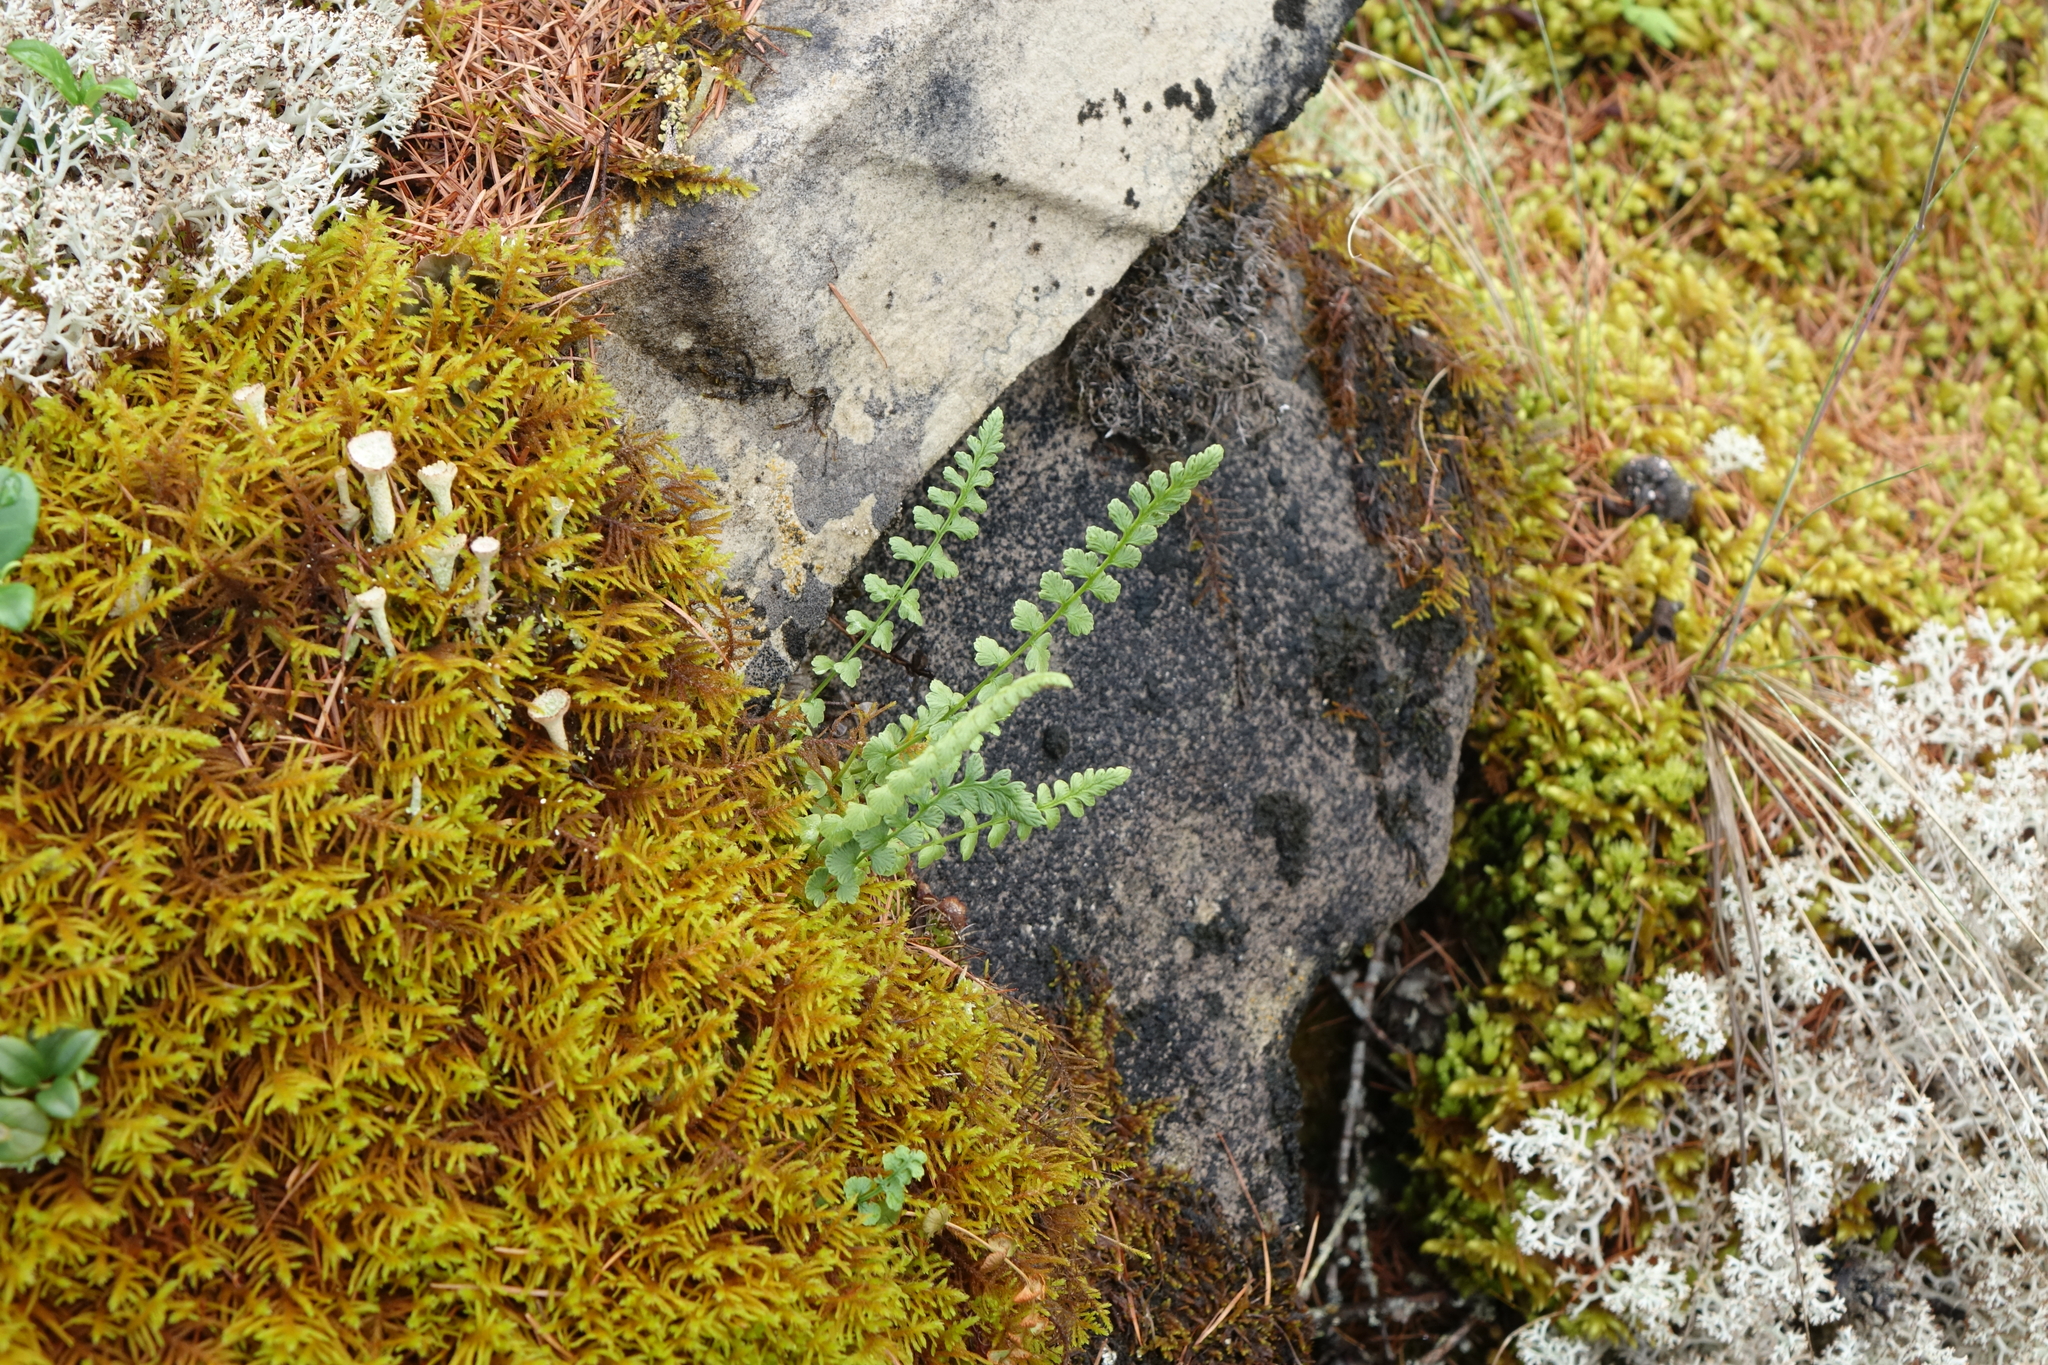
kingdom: Plantae
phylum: Tracheophyta
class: Polypodiopsida
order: Polypodiales
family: Woodsiaceae
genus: Woodsia
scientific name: Woodsia glabella
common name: Smooth woodsia
